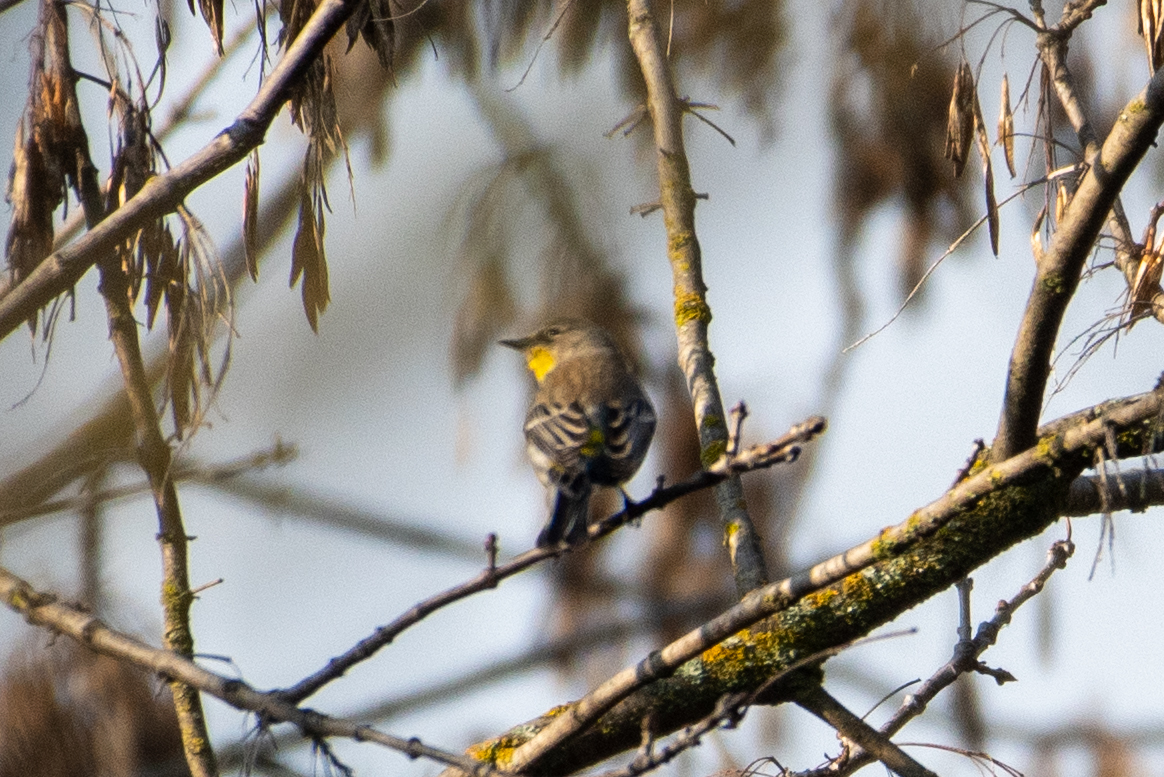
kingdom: Animalia
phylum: Chordata
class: Aves
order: Passeriformes
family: Parulidae
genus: Setophaga
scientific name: Setophaga coronata
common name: Myrtle warbler
